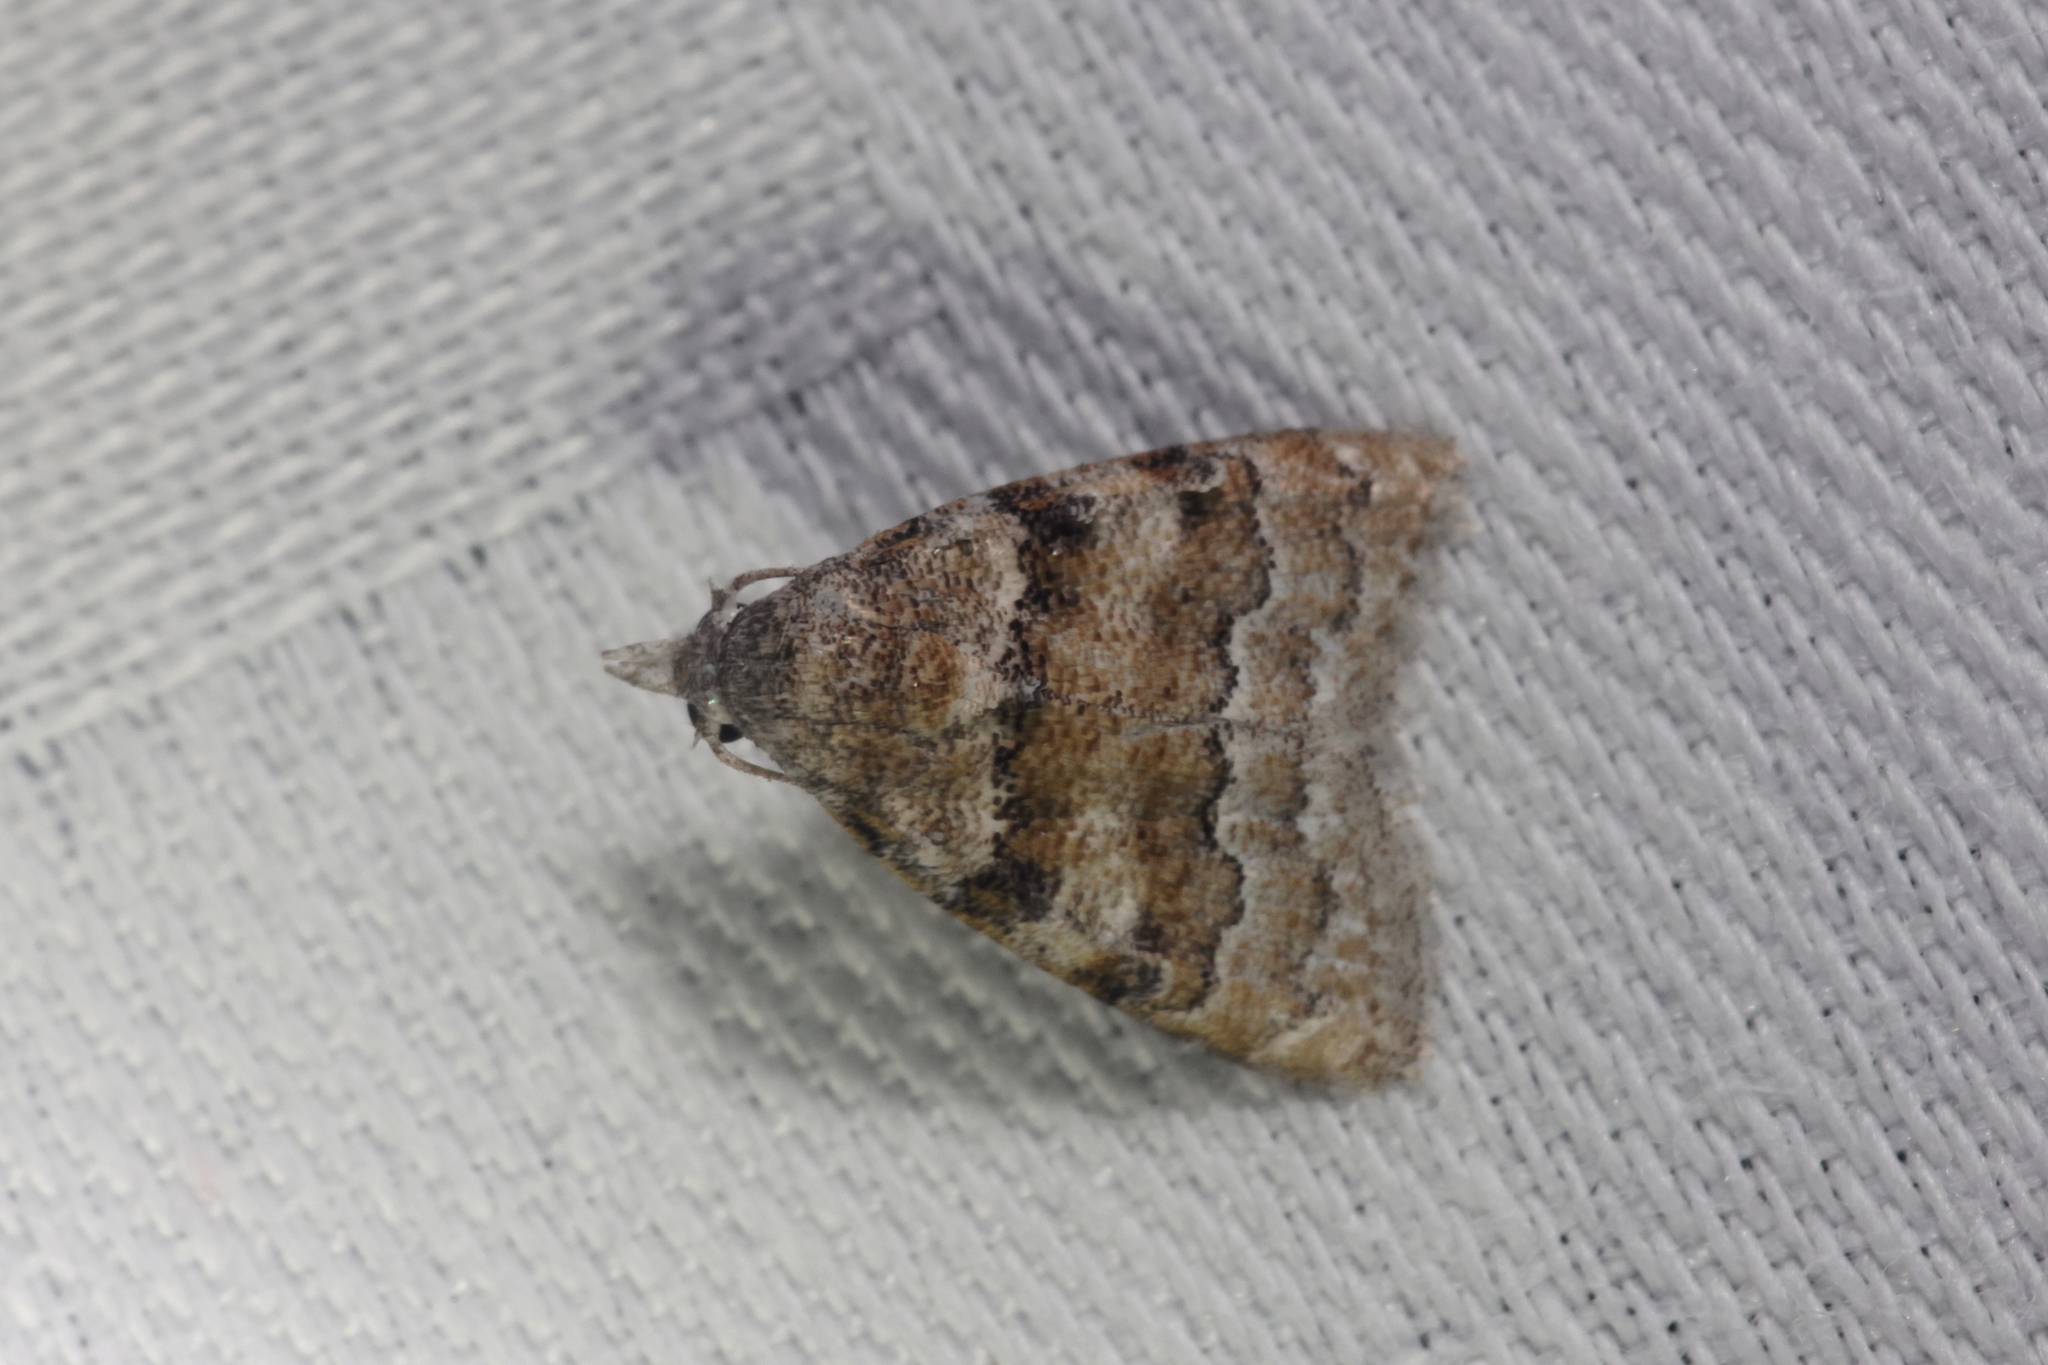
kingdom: Animalia
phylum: Arthropoda
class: Insecta
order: Lepidoptera
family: Nolidae
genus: Nola
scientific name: Nola bifascialis
